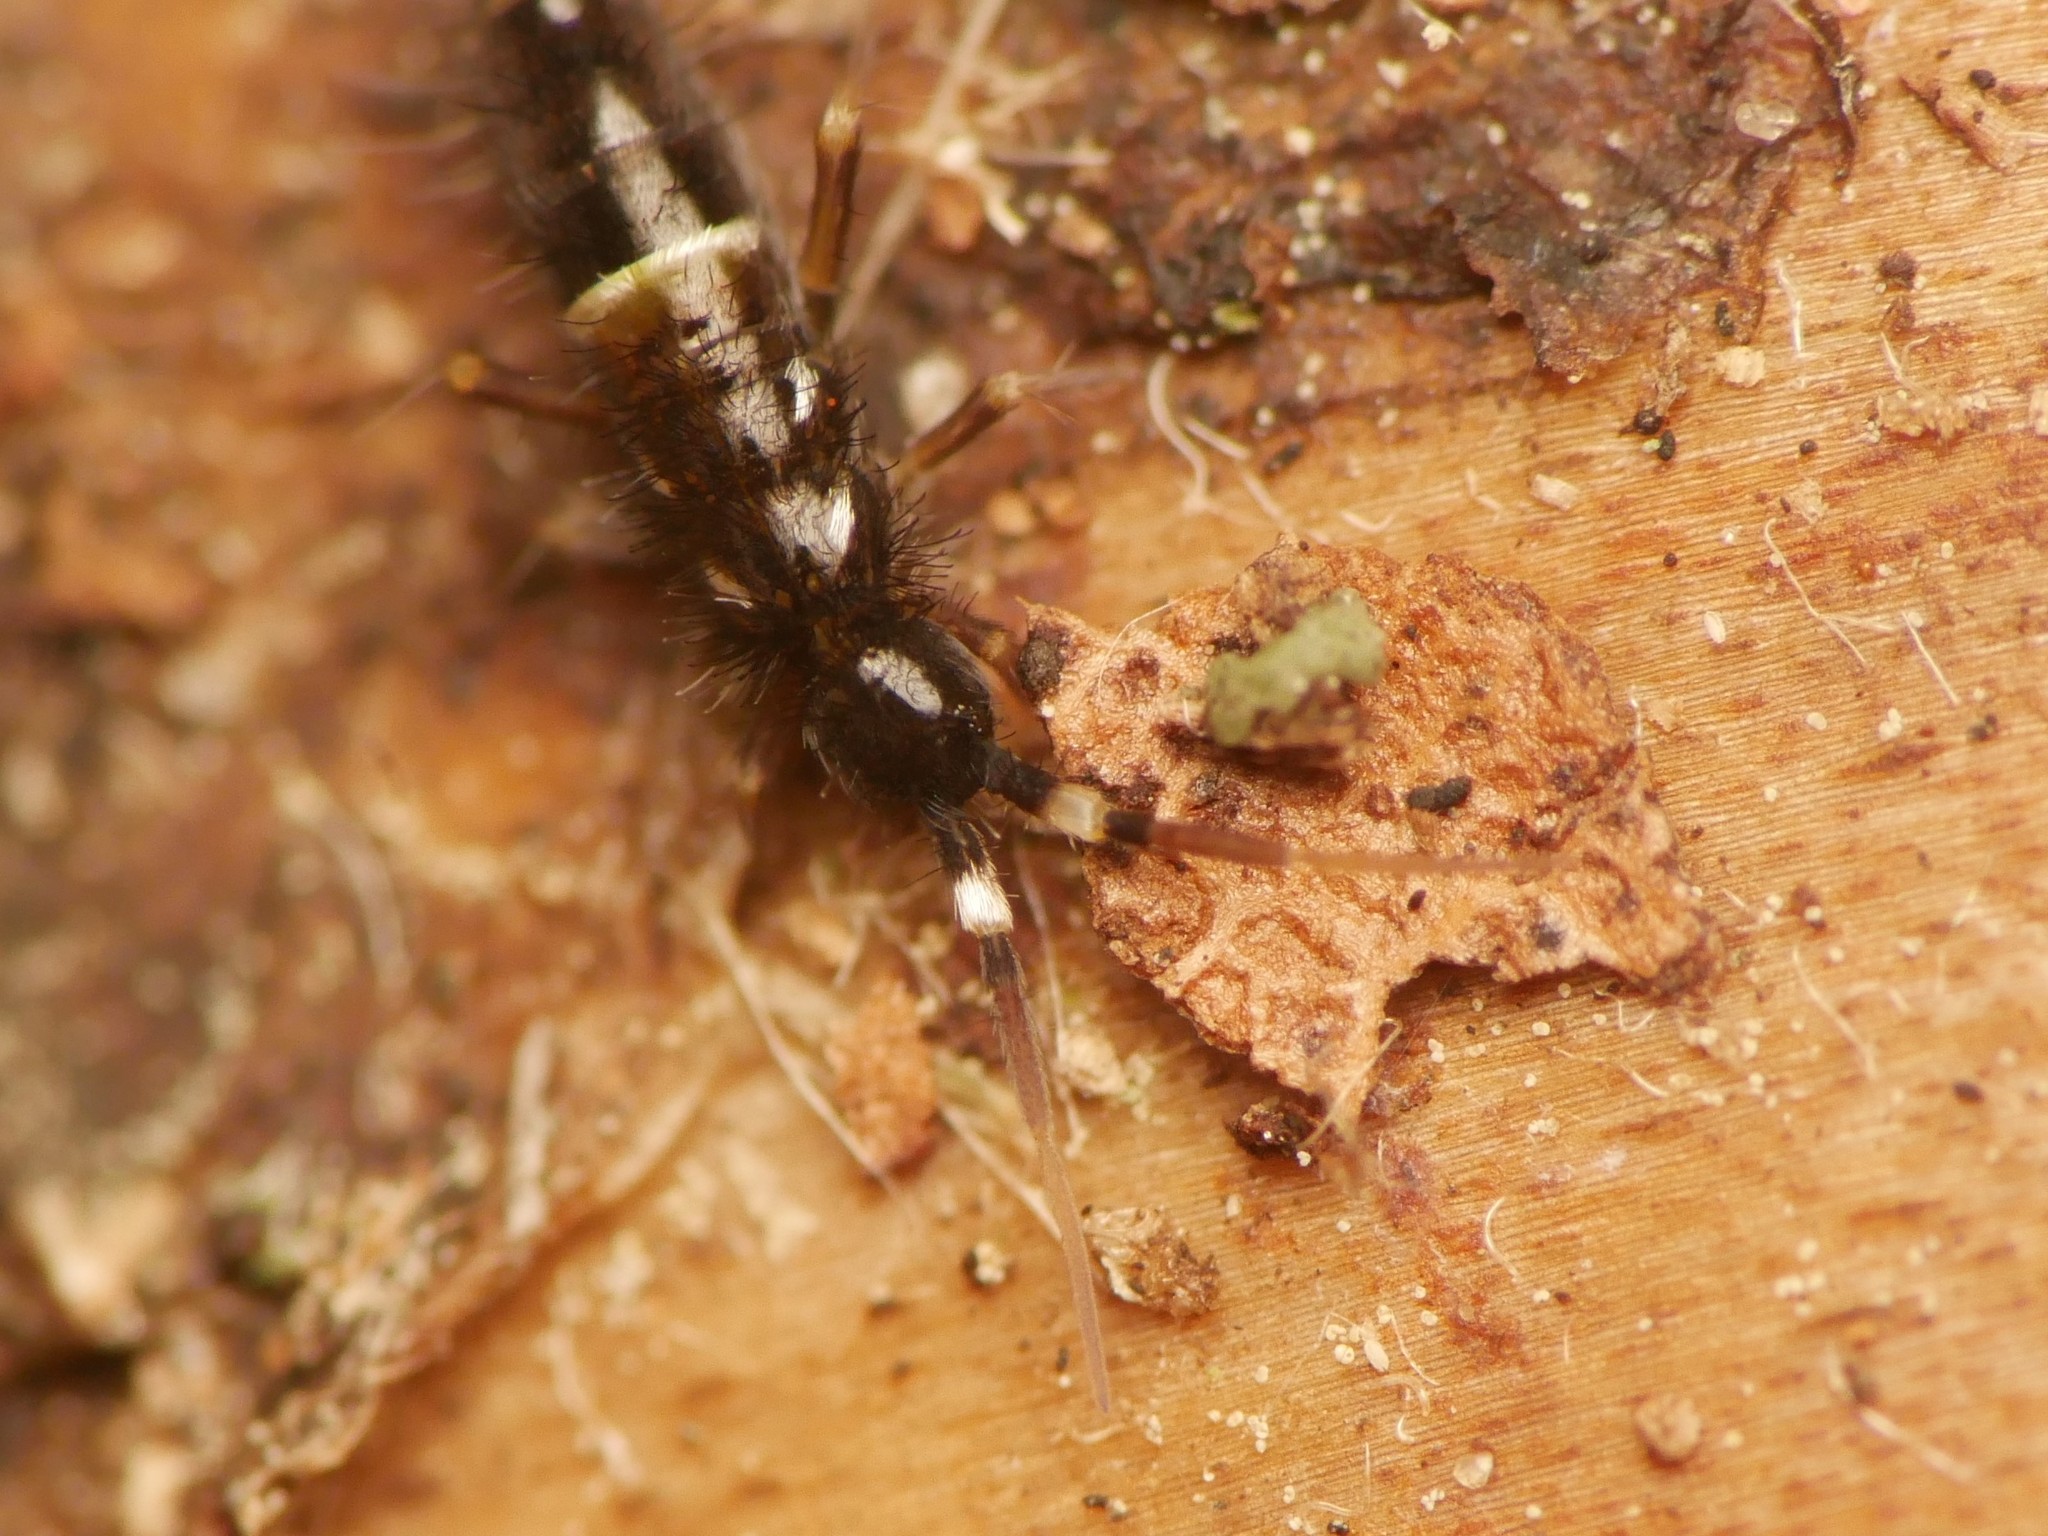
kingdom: Animalia
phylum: Arthropoda
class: Collembola
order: Entomobryomorpha
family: Orchesellidae
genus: Orchesella
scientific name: Orchesella cincta
